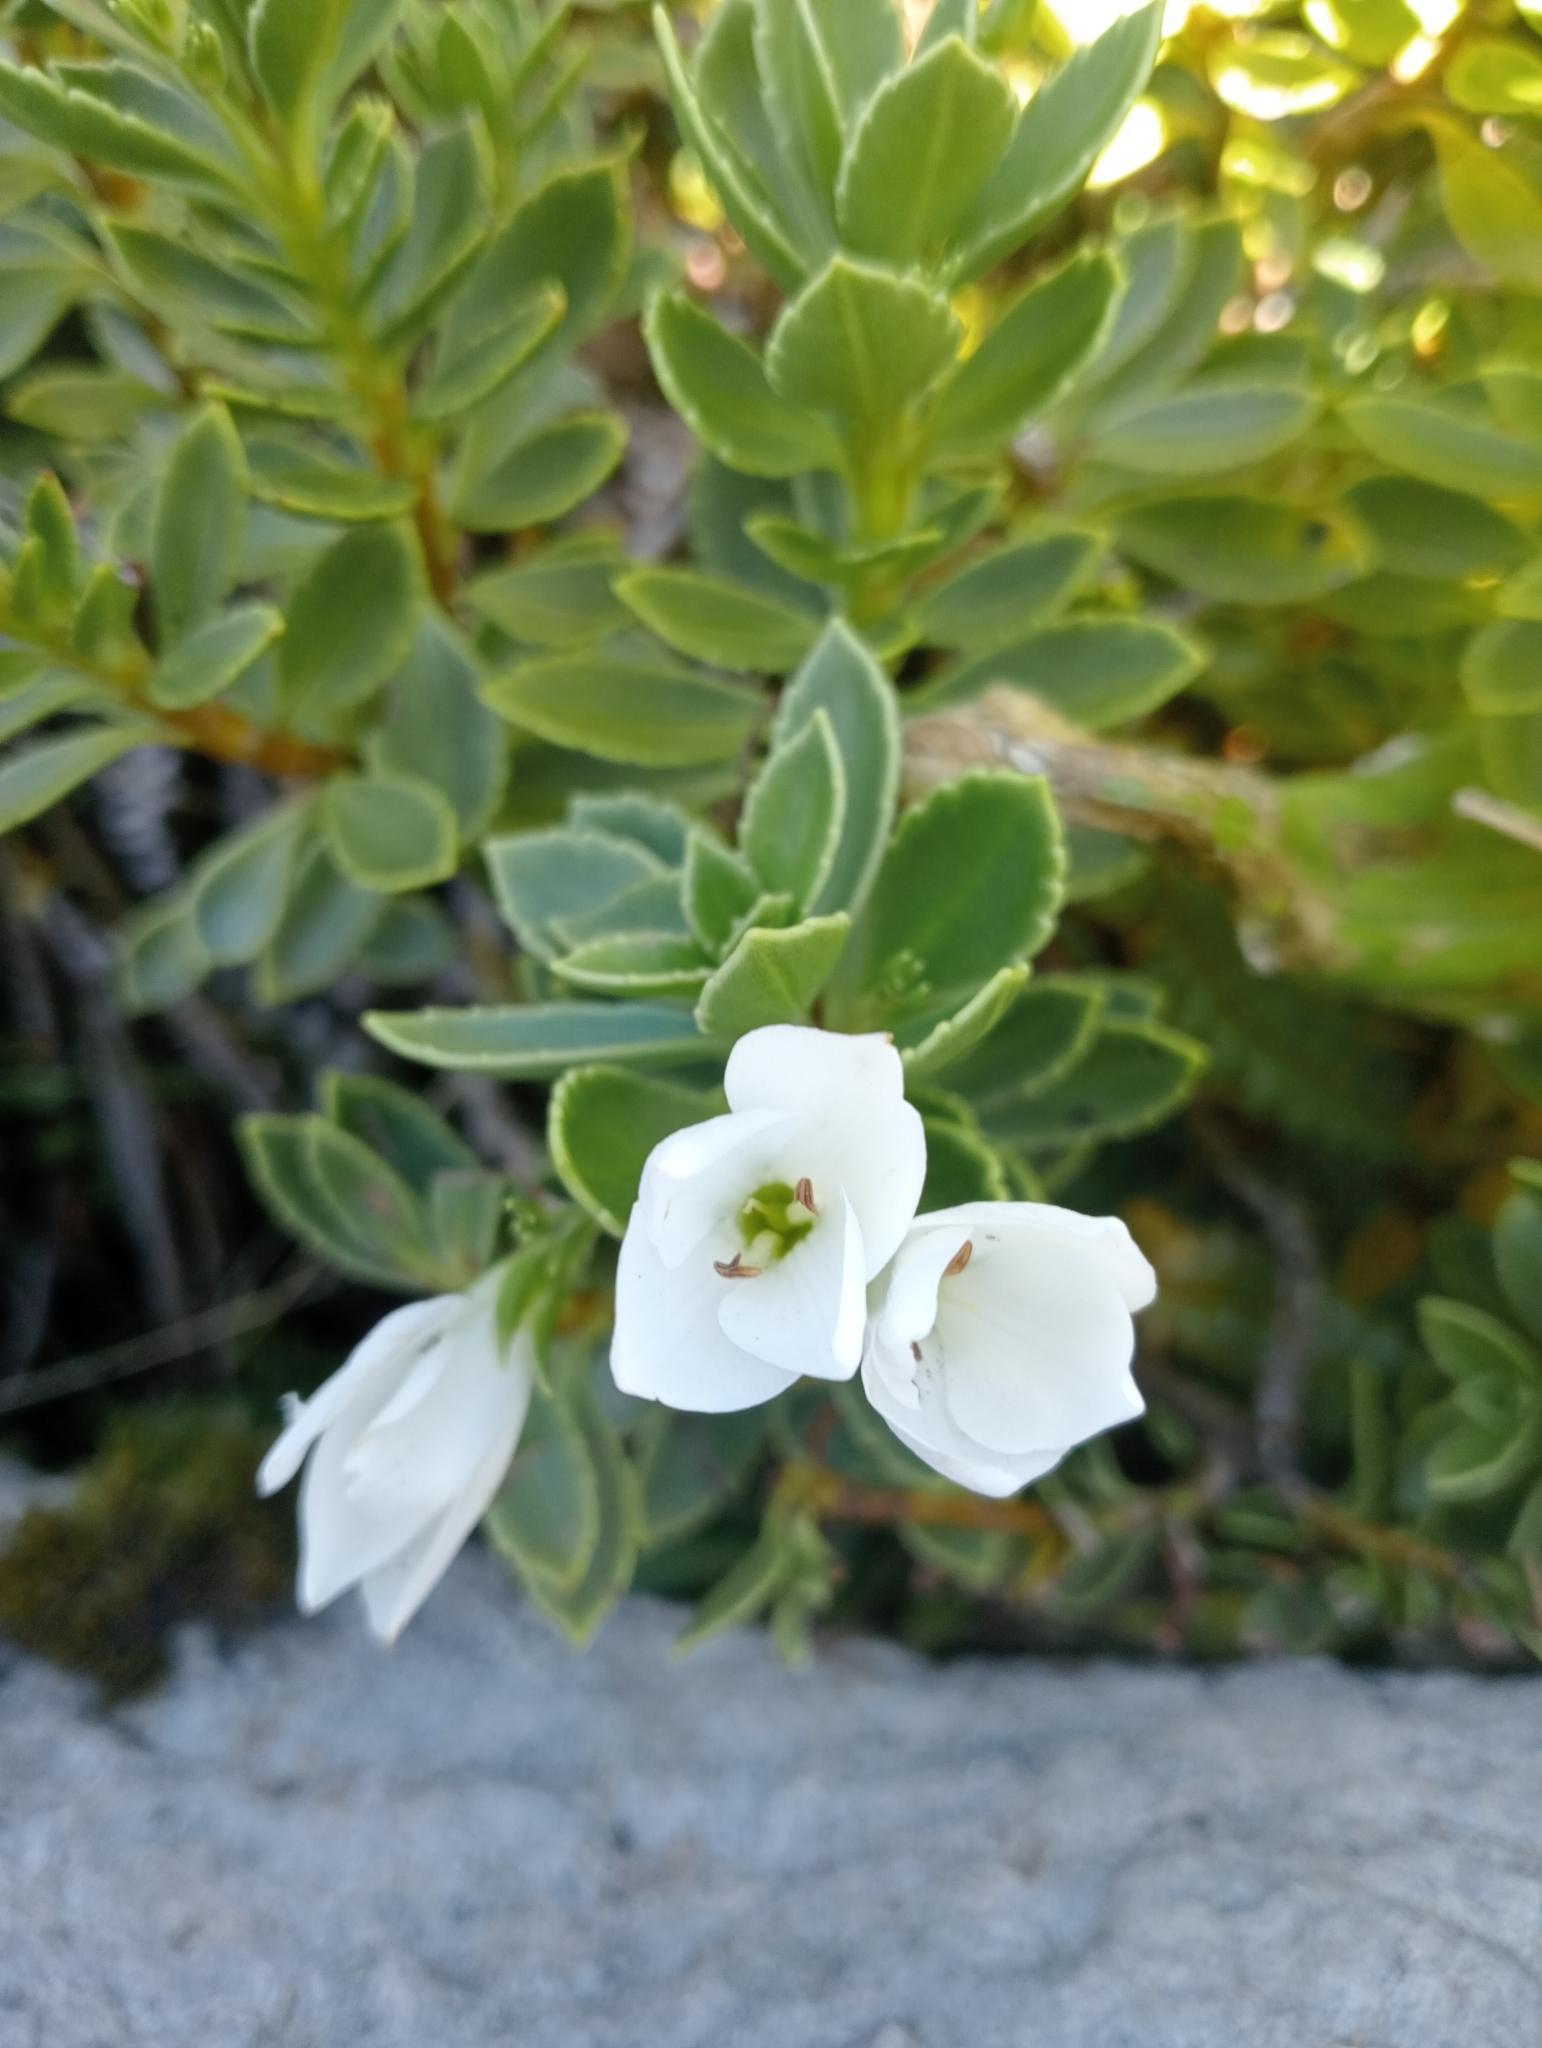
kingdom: Plantae
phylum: Tracheophyta
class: Magnoliopsida
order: Lamiales
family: Plantaginaceae
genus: Veronica
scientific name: Veronica macrantha
